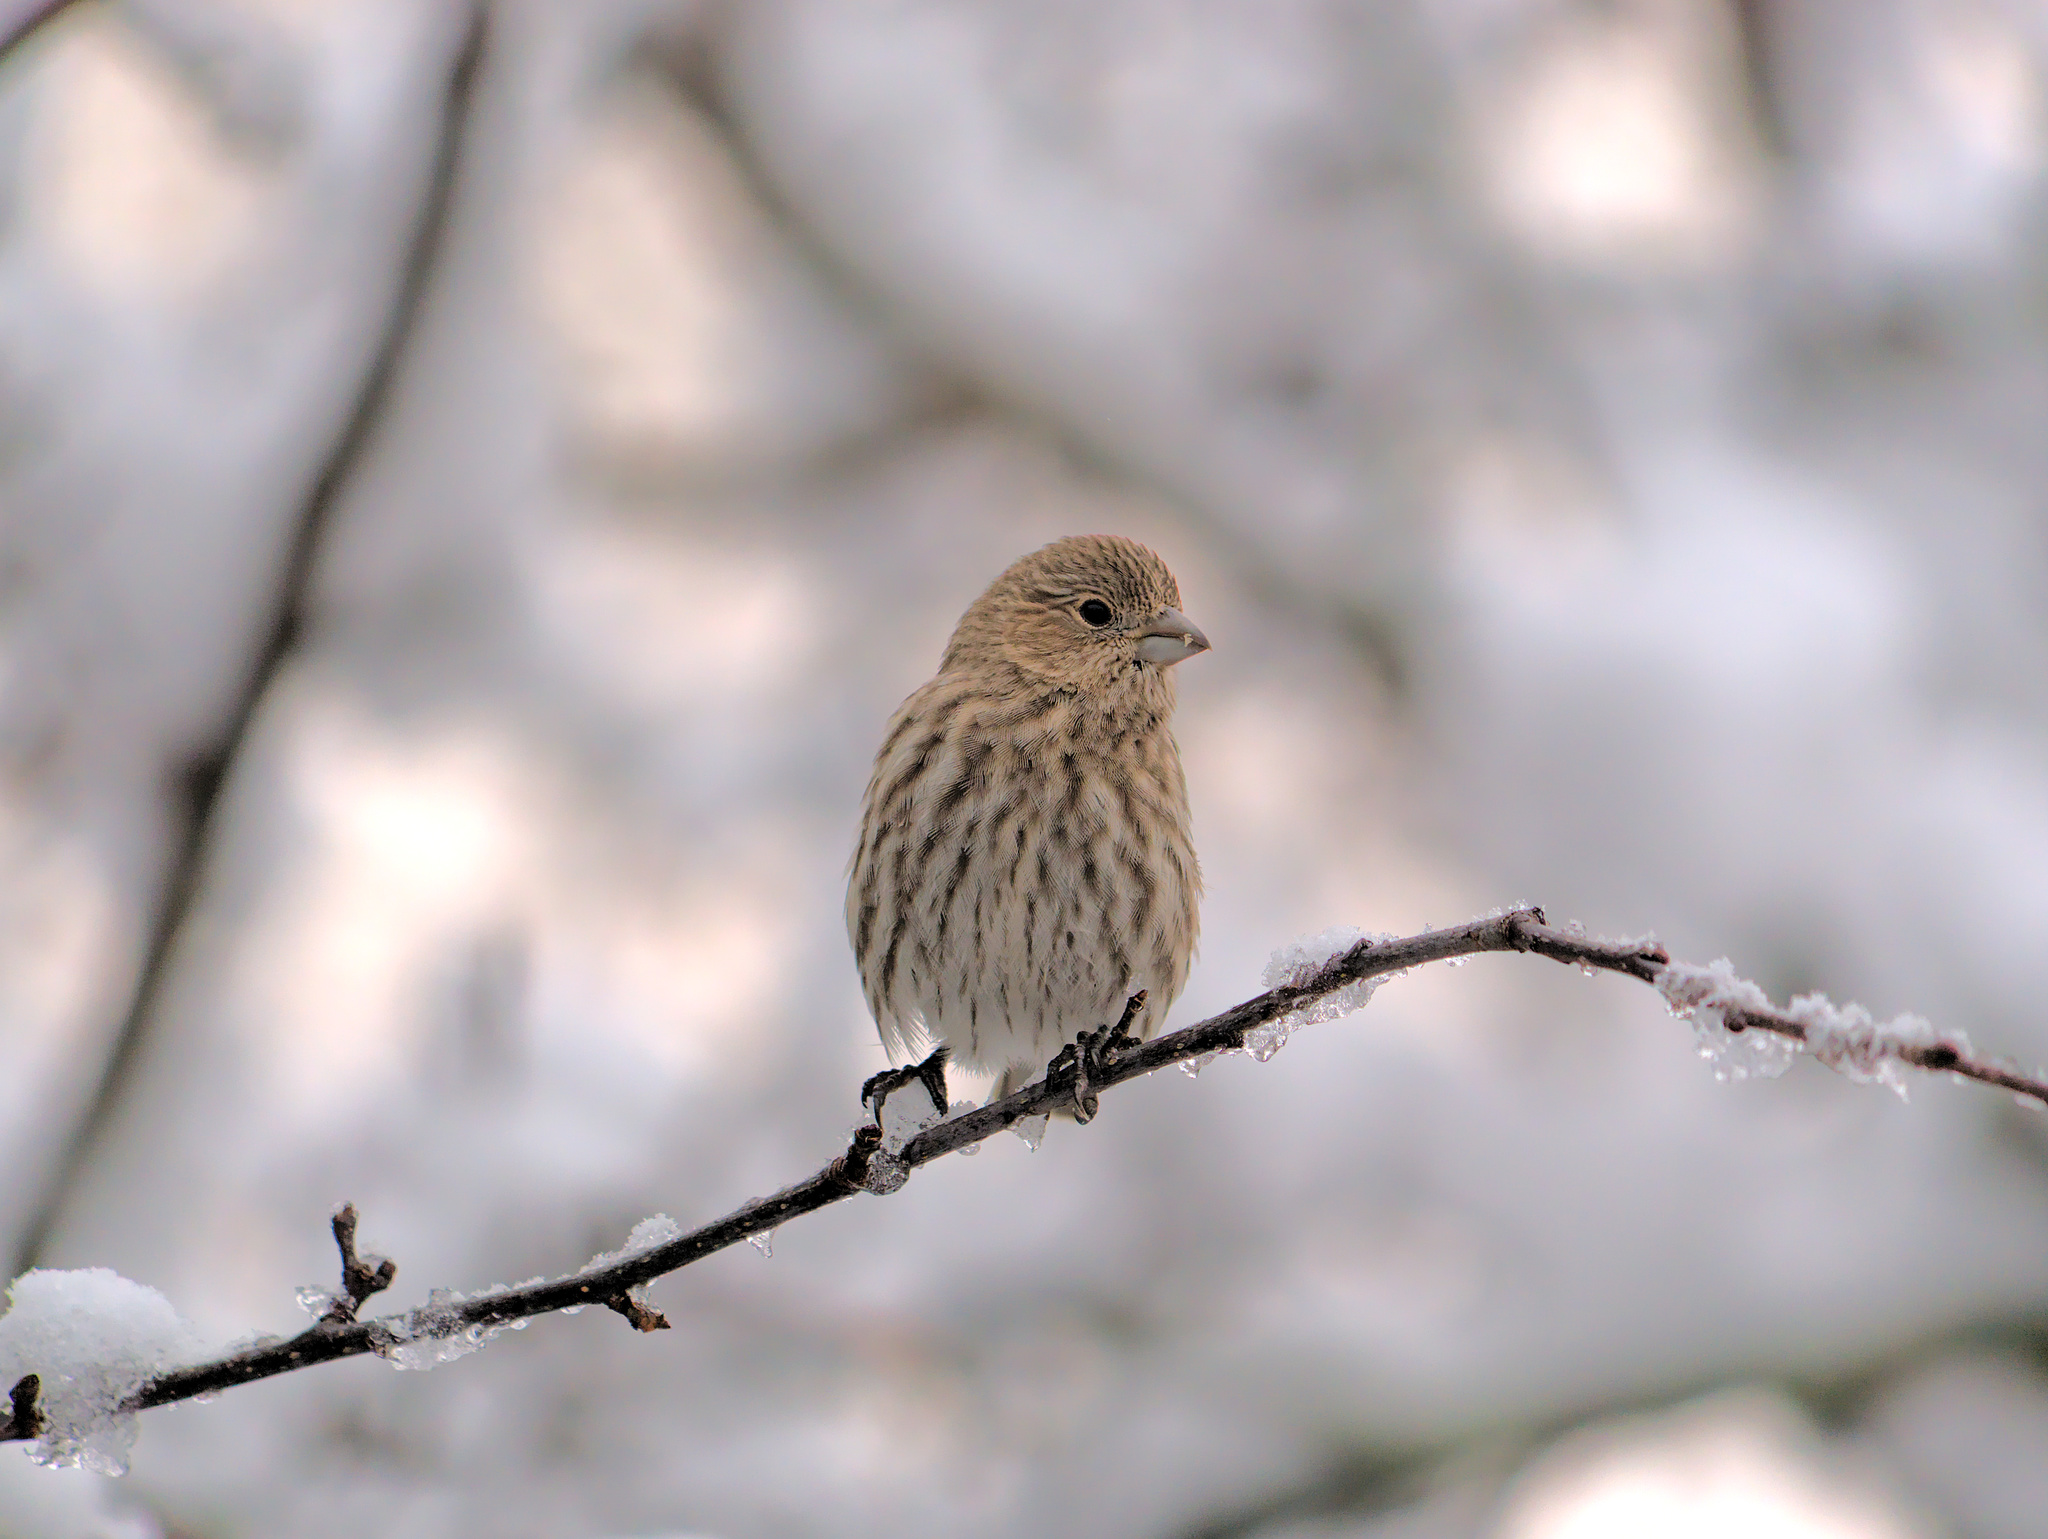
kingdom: Animalia
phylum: Chordata
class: Aves
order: Passeriformes
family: Fringillidae
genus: Haemorhous
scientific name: Haemorhous mexicanus
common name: House finch
